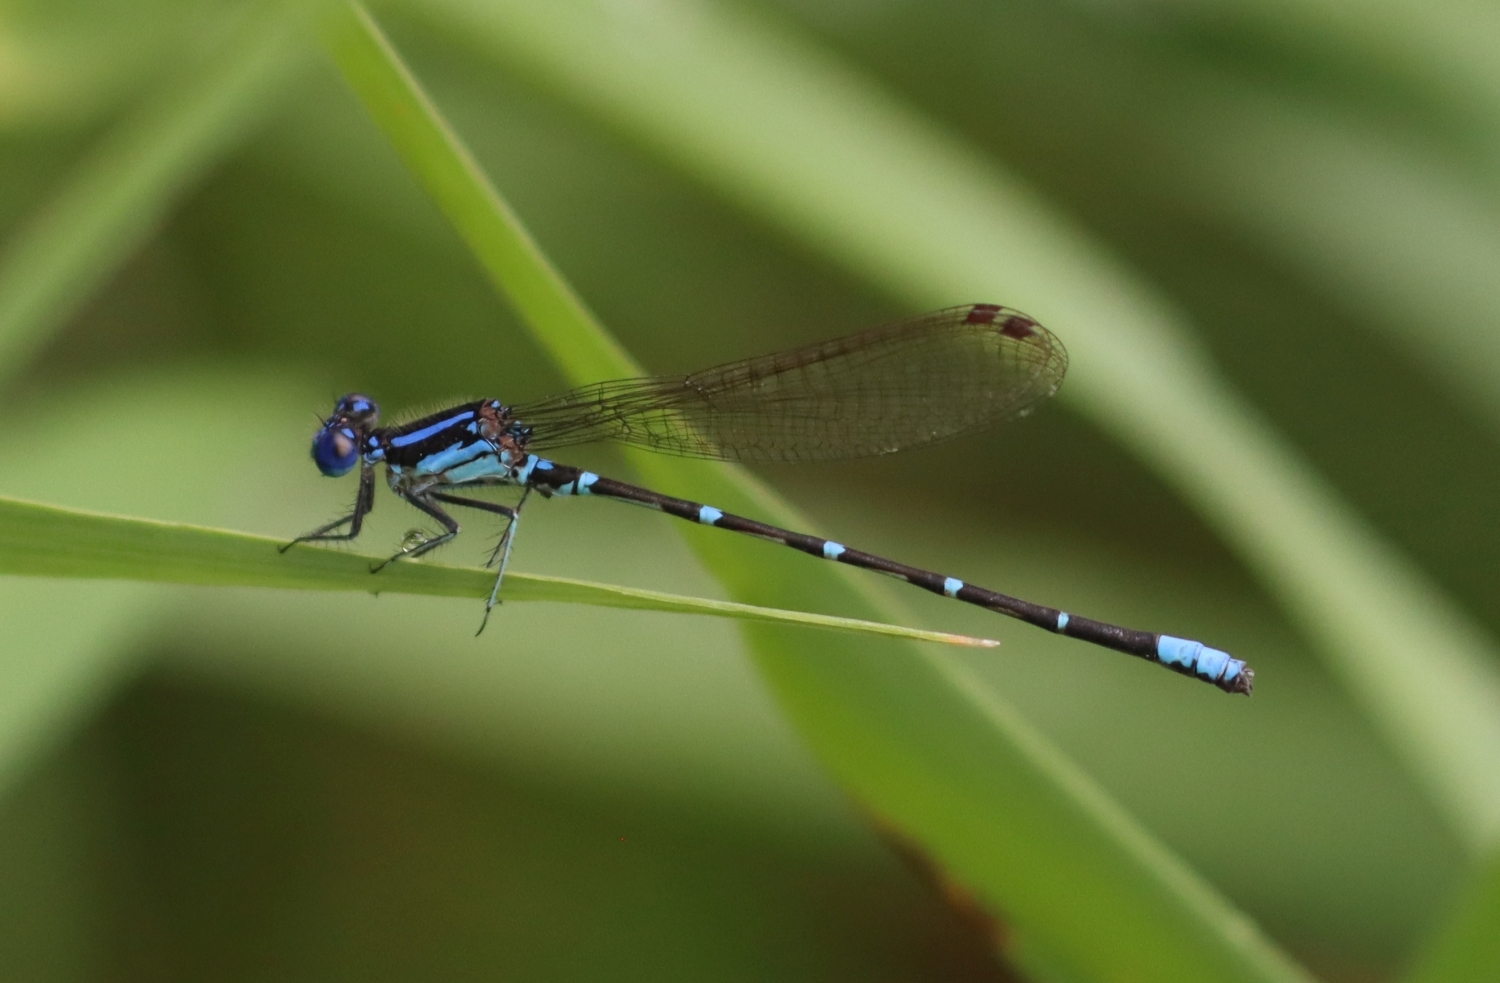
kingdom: Animalia
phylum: Arthropoda
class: Insecta
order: Odonata
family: Coenagrionidae
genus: Argia
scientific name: Argia sedula
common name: Blue-ringed dancer
